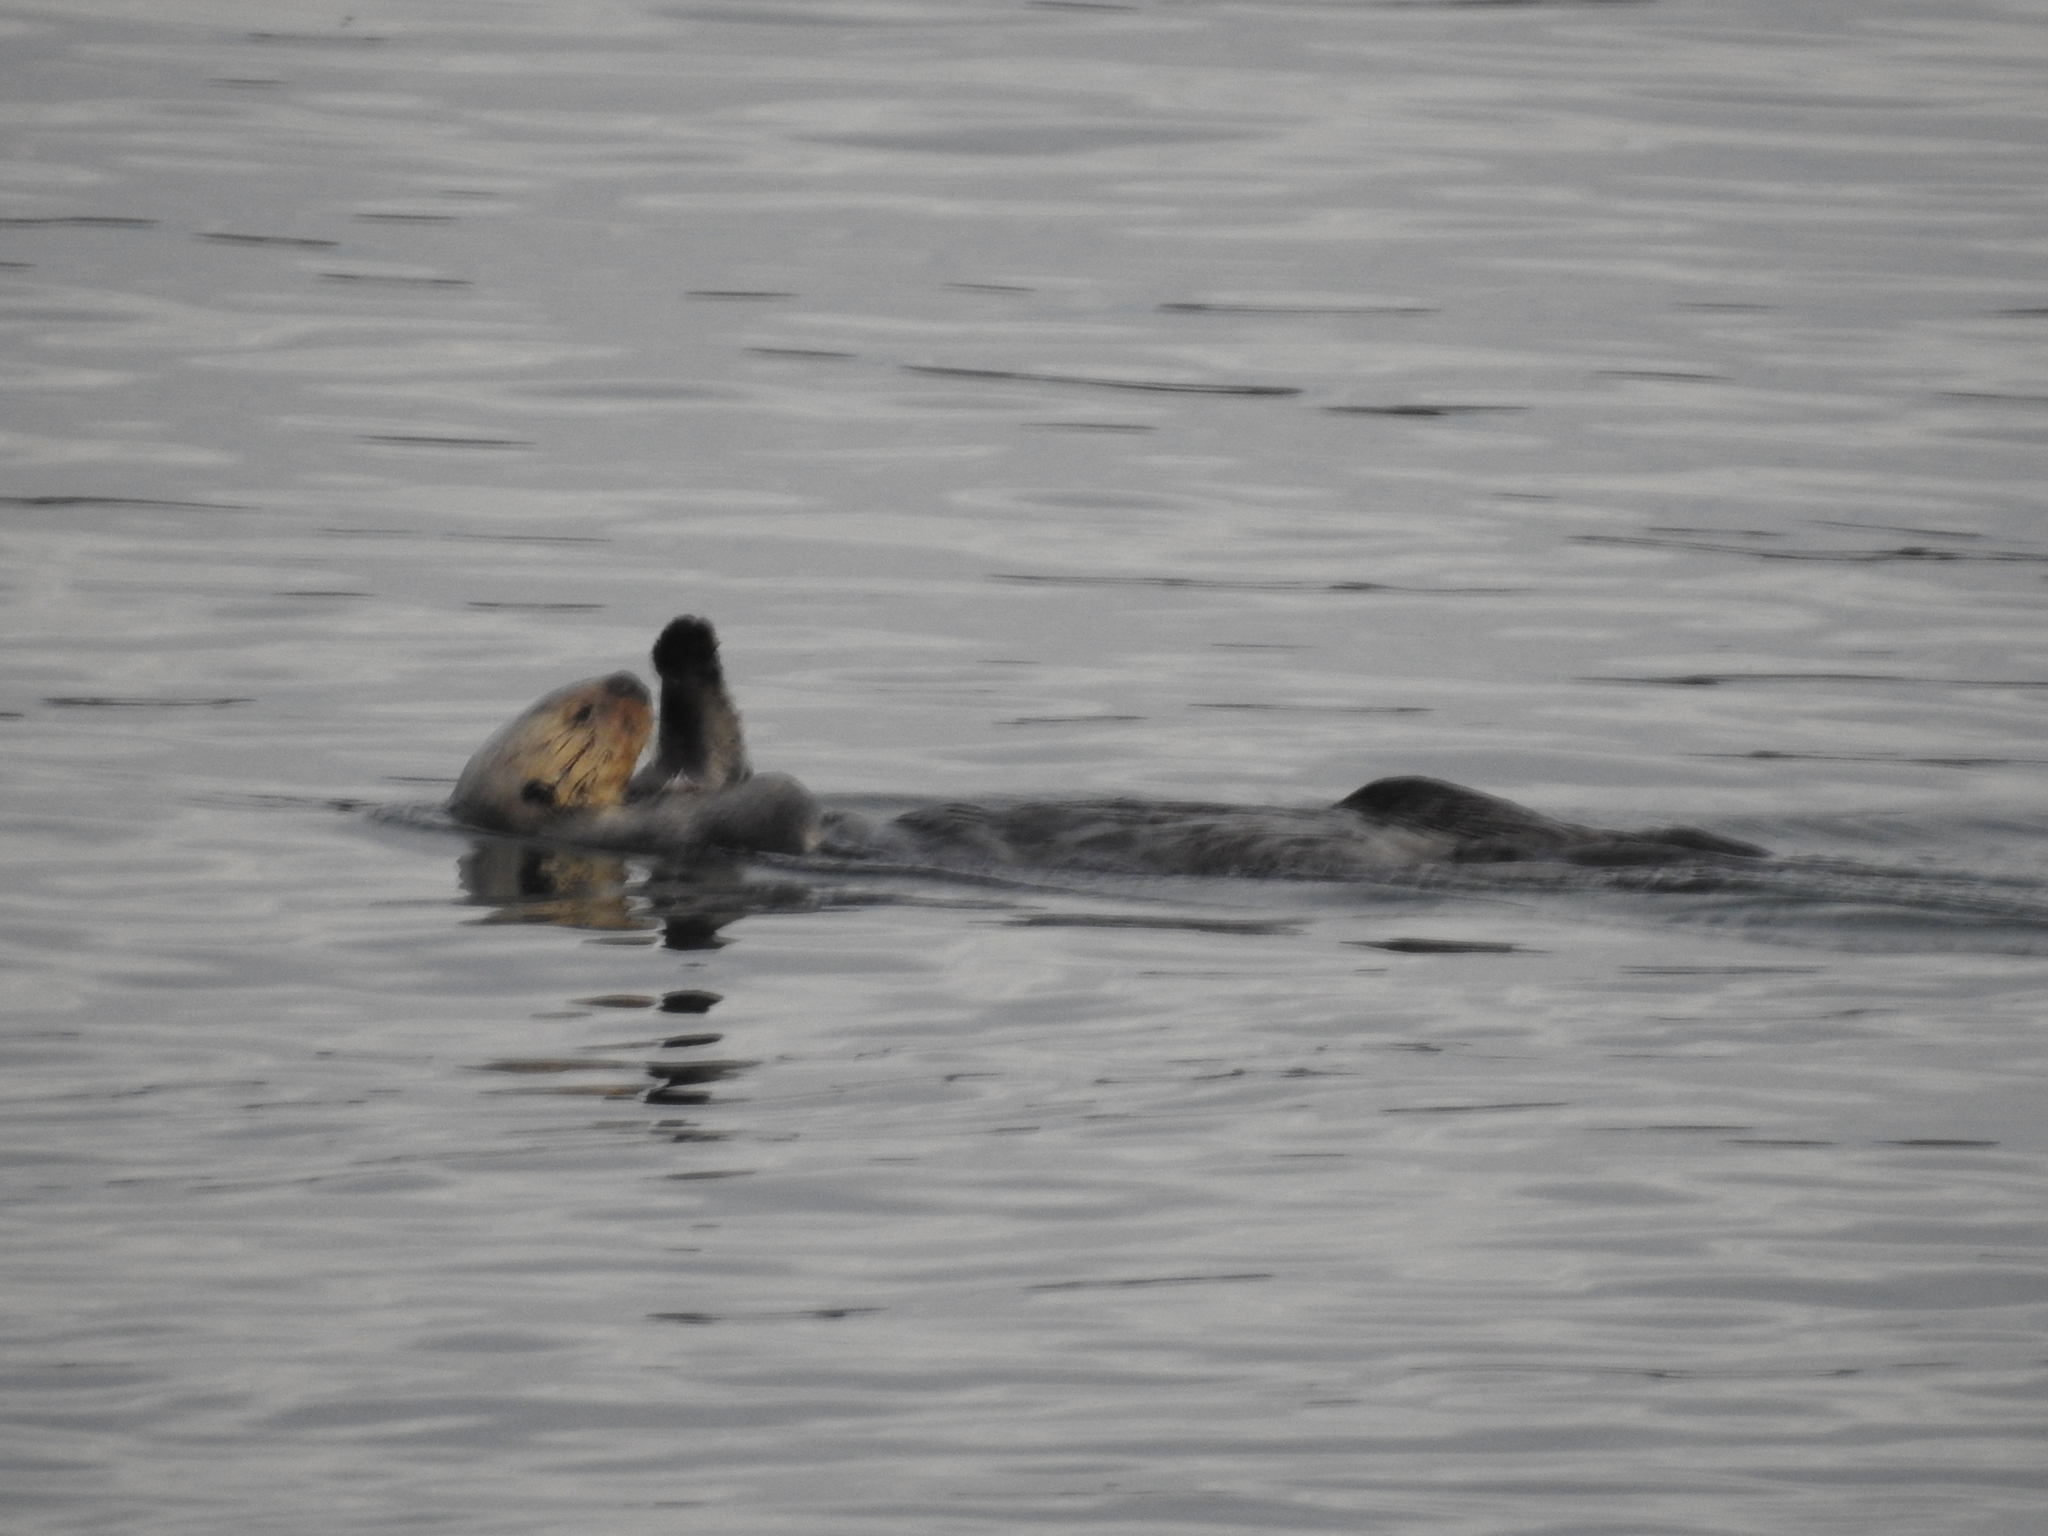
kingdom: Animalia
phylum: Chordata
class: Mammalia
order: Carnivora
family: Mustelidae
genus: Enhydra
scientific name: Enhydra lutris
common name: Sea otter
